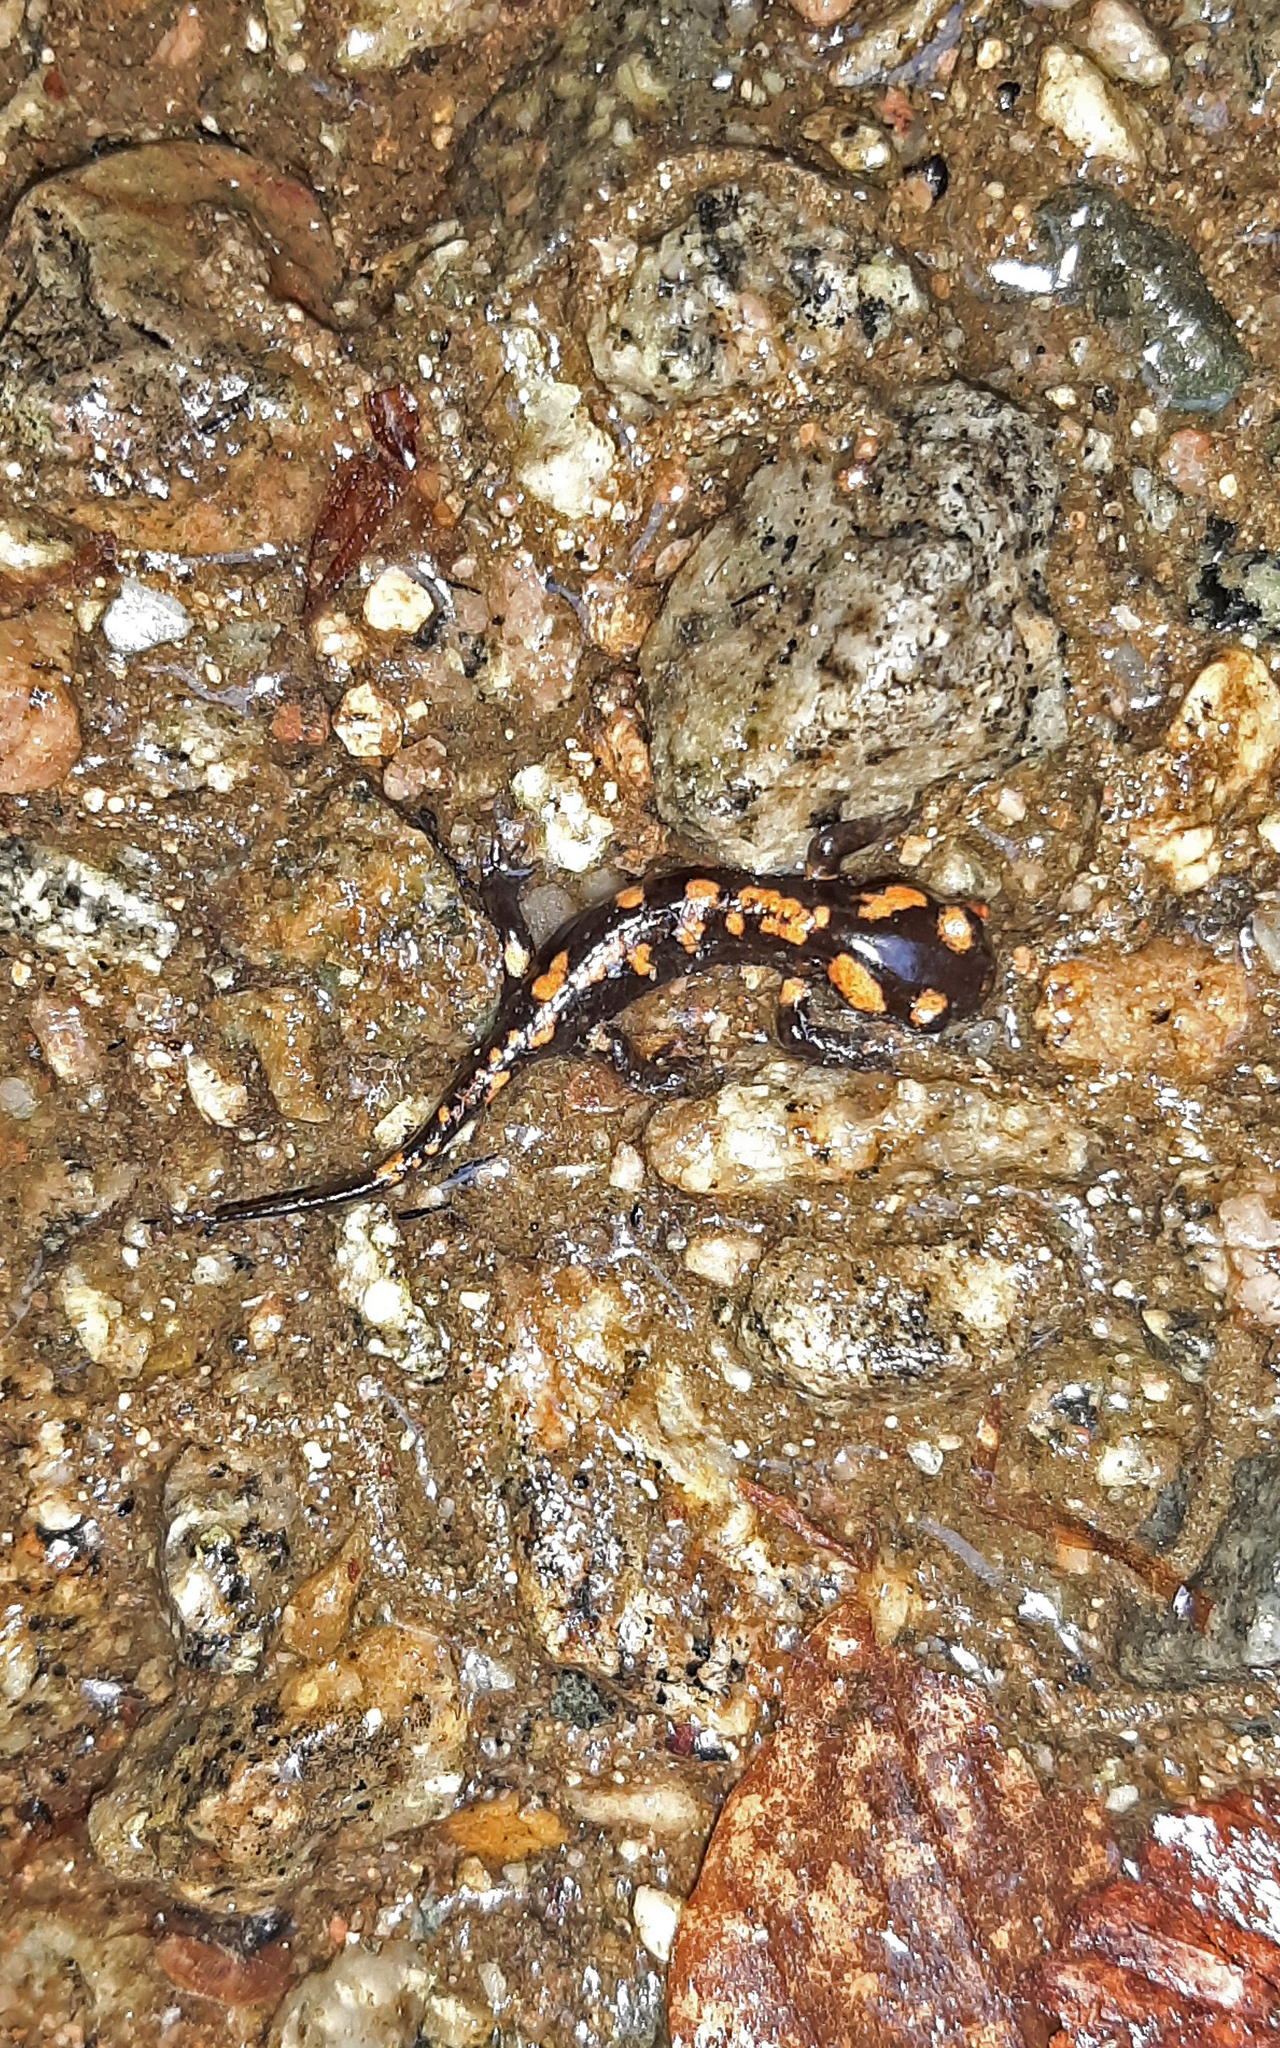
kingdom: Animalia
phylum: Chordata
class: Amphibia
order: Caudata
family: Salamandridae
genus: Salamandra
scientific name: Salamandra corsica
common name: Corsican fire salamander
